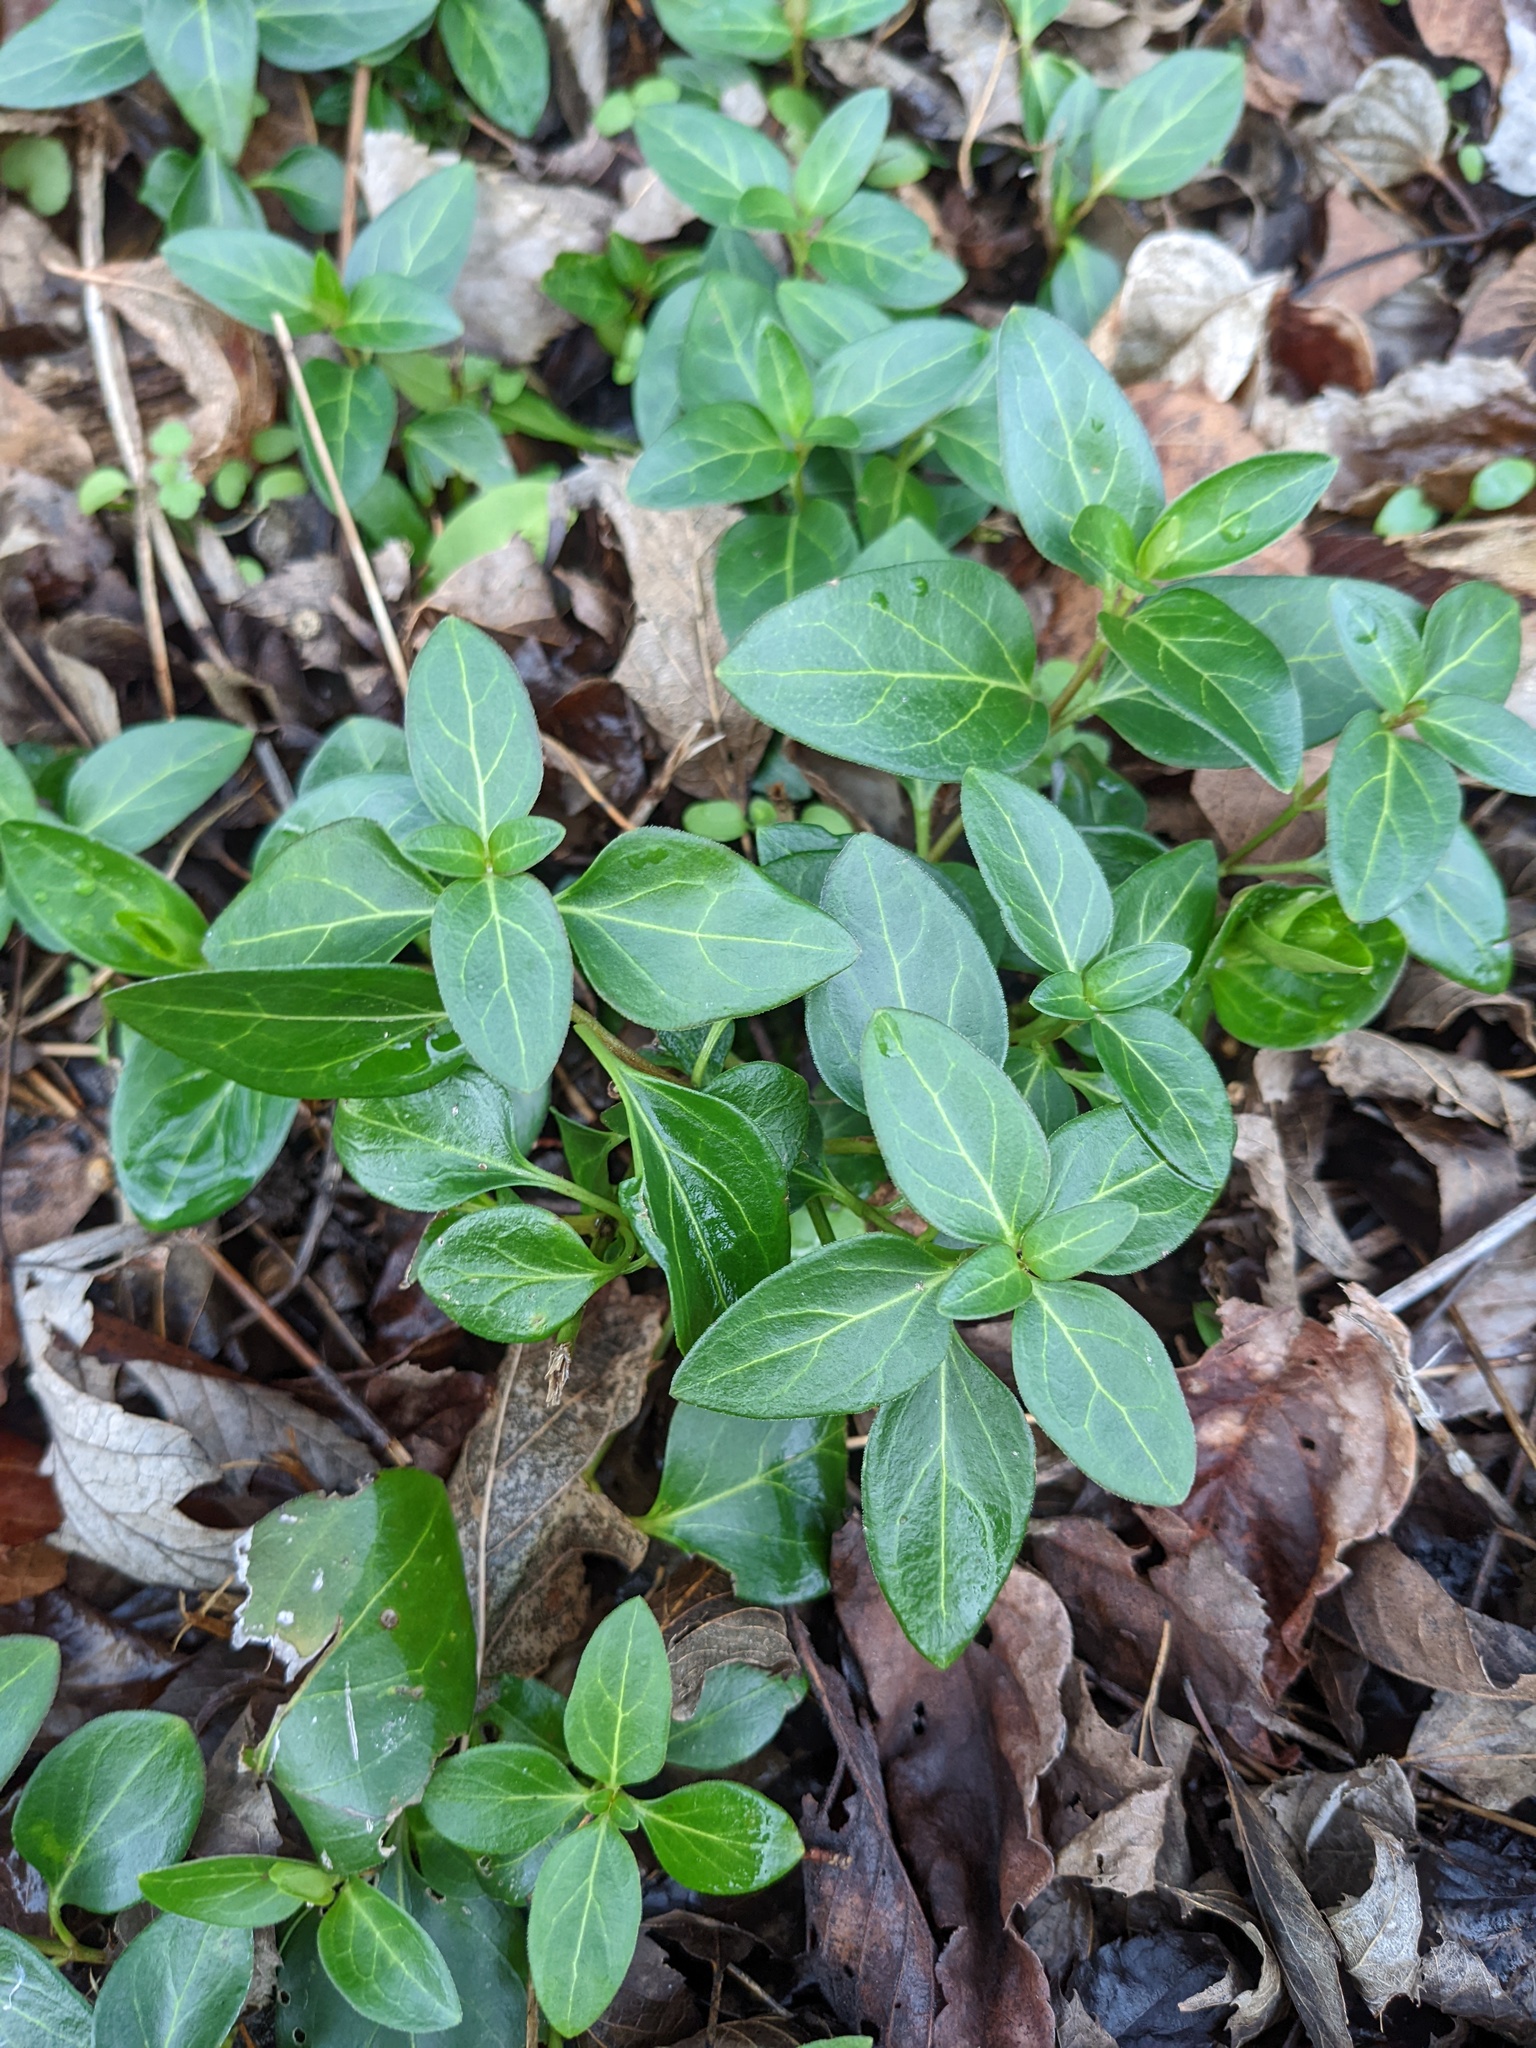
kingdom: Plantae
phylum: Tracheophyta
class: Magnoliopsida
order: Gentianales
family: Apocynaceae
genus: Vinca
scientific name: Vinca minor
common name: Lesser periwinkle
